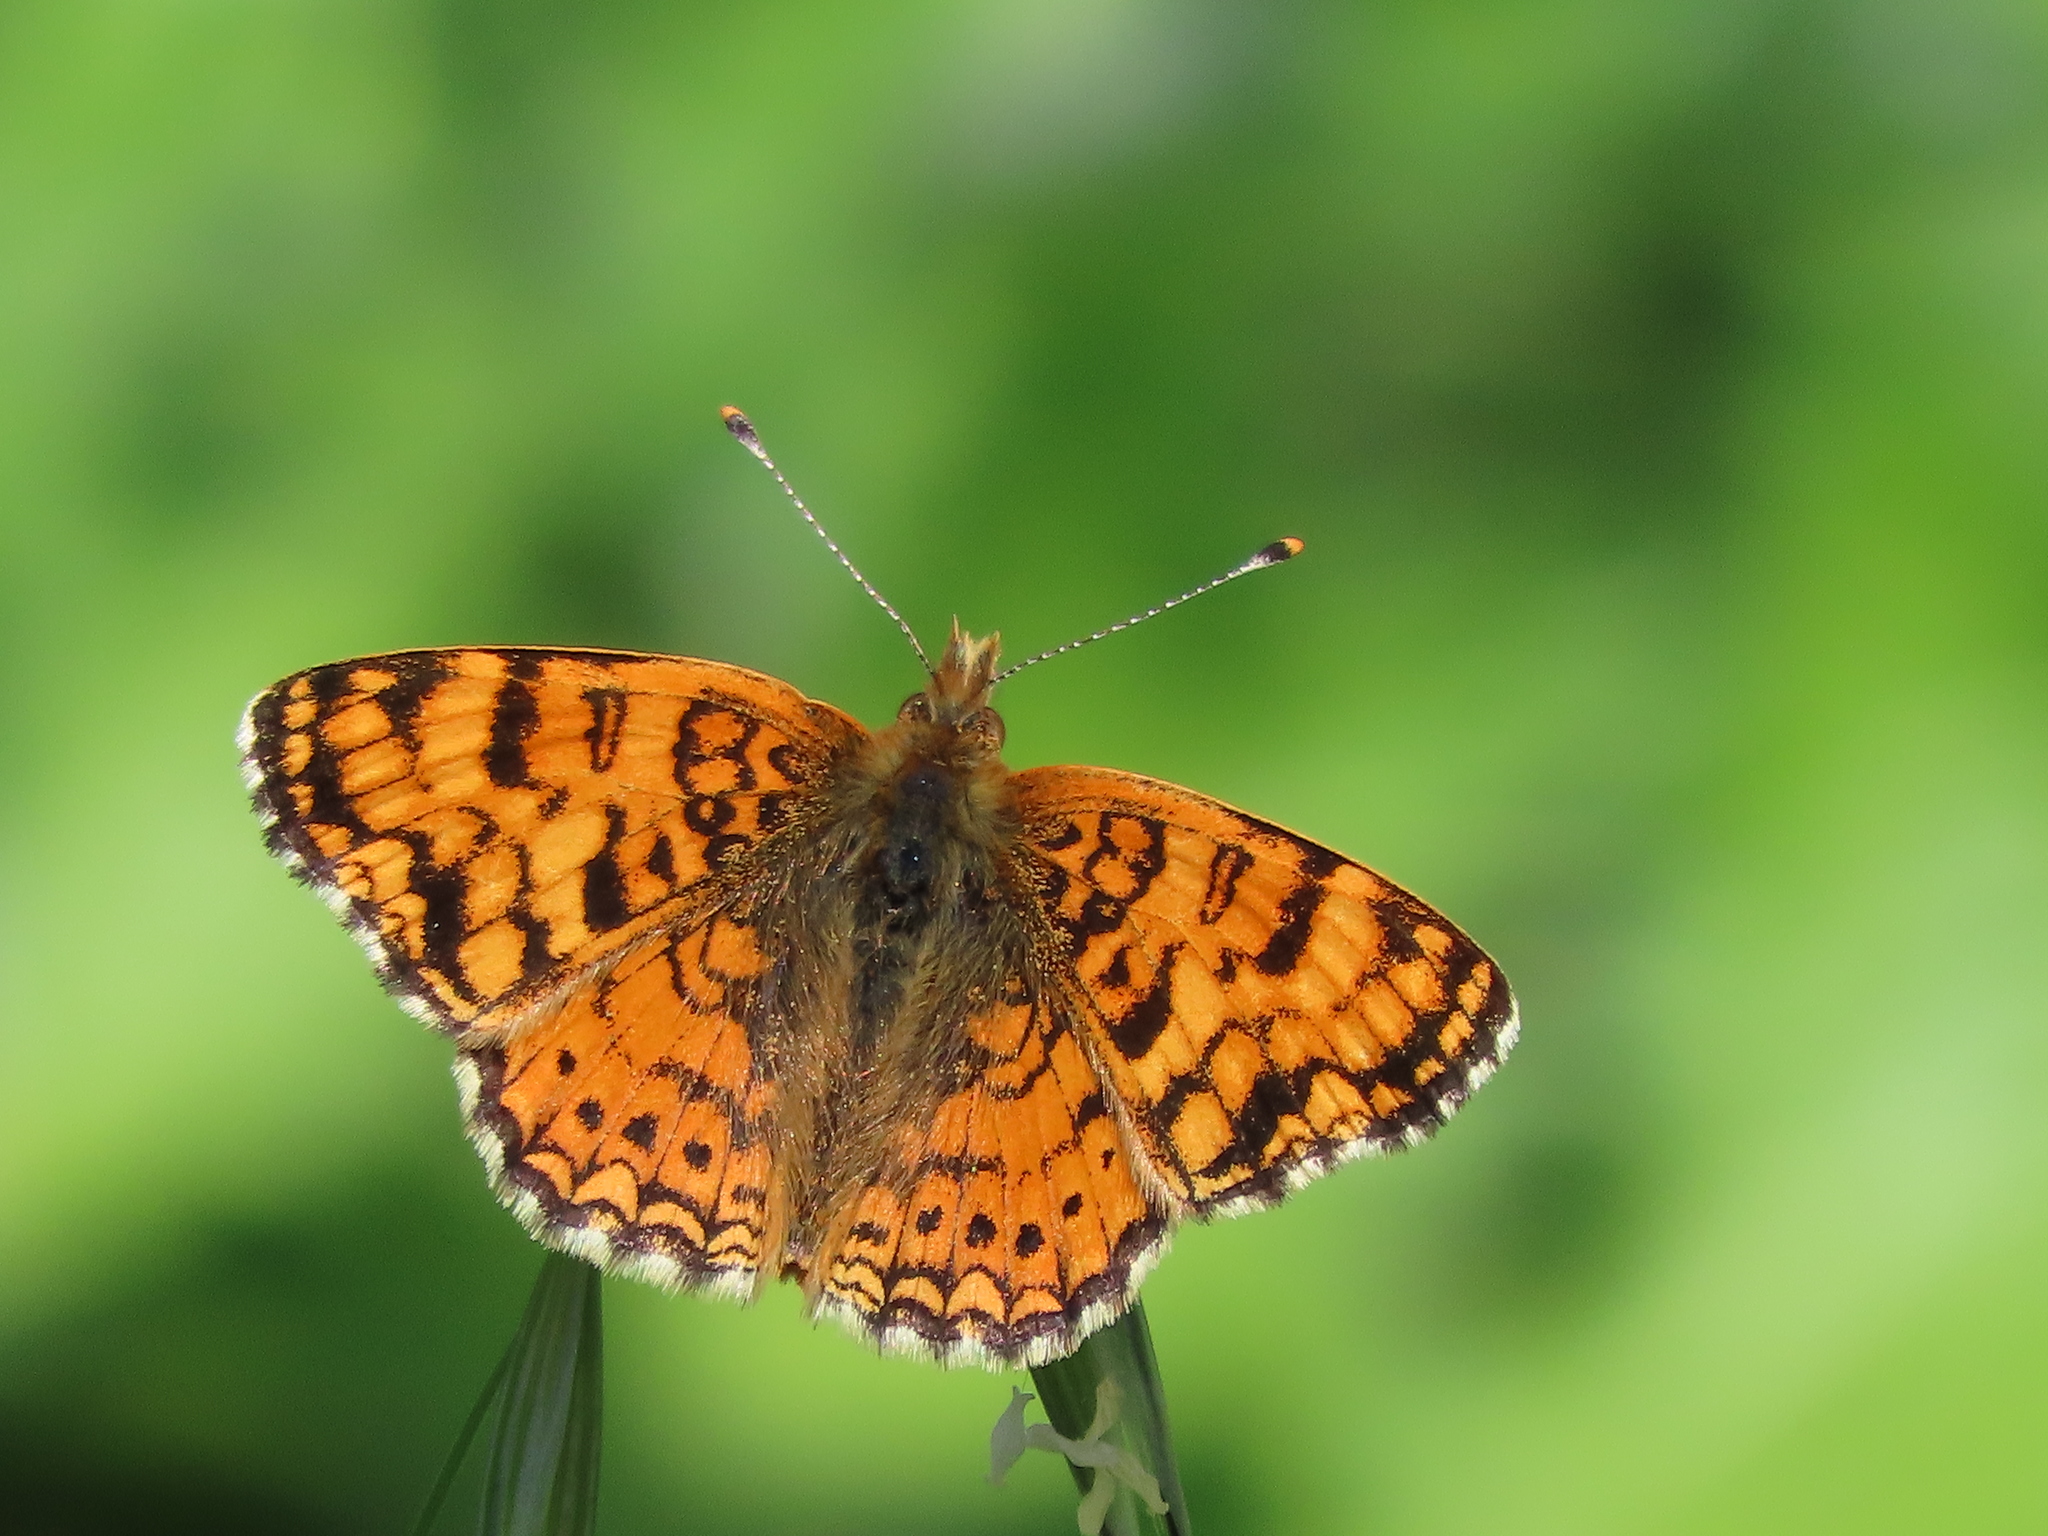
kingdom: Animalia
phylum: Arthropoda
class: Insecta
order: Lepidoptera
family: Nymphalidae
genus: Eresia
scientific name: Eresia aveyrona
